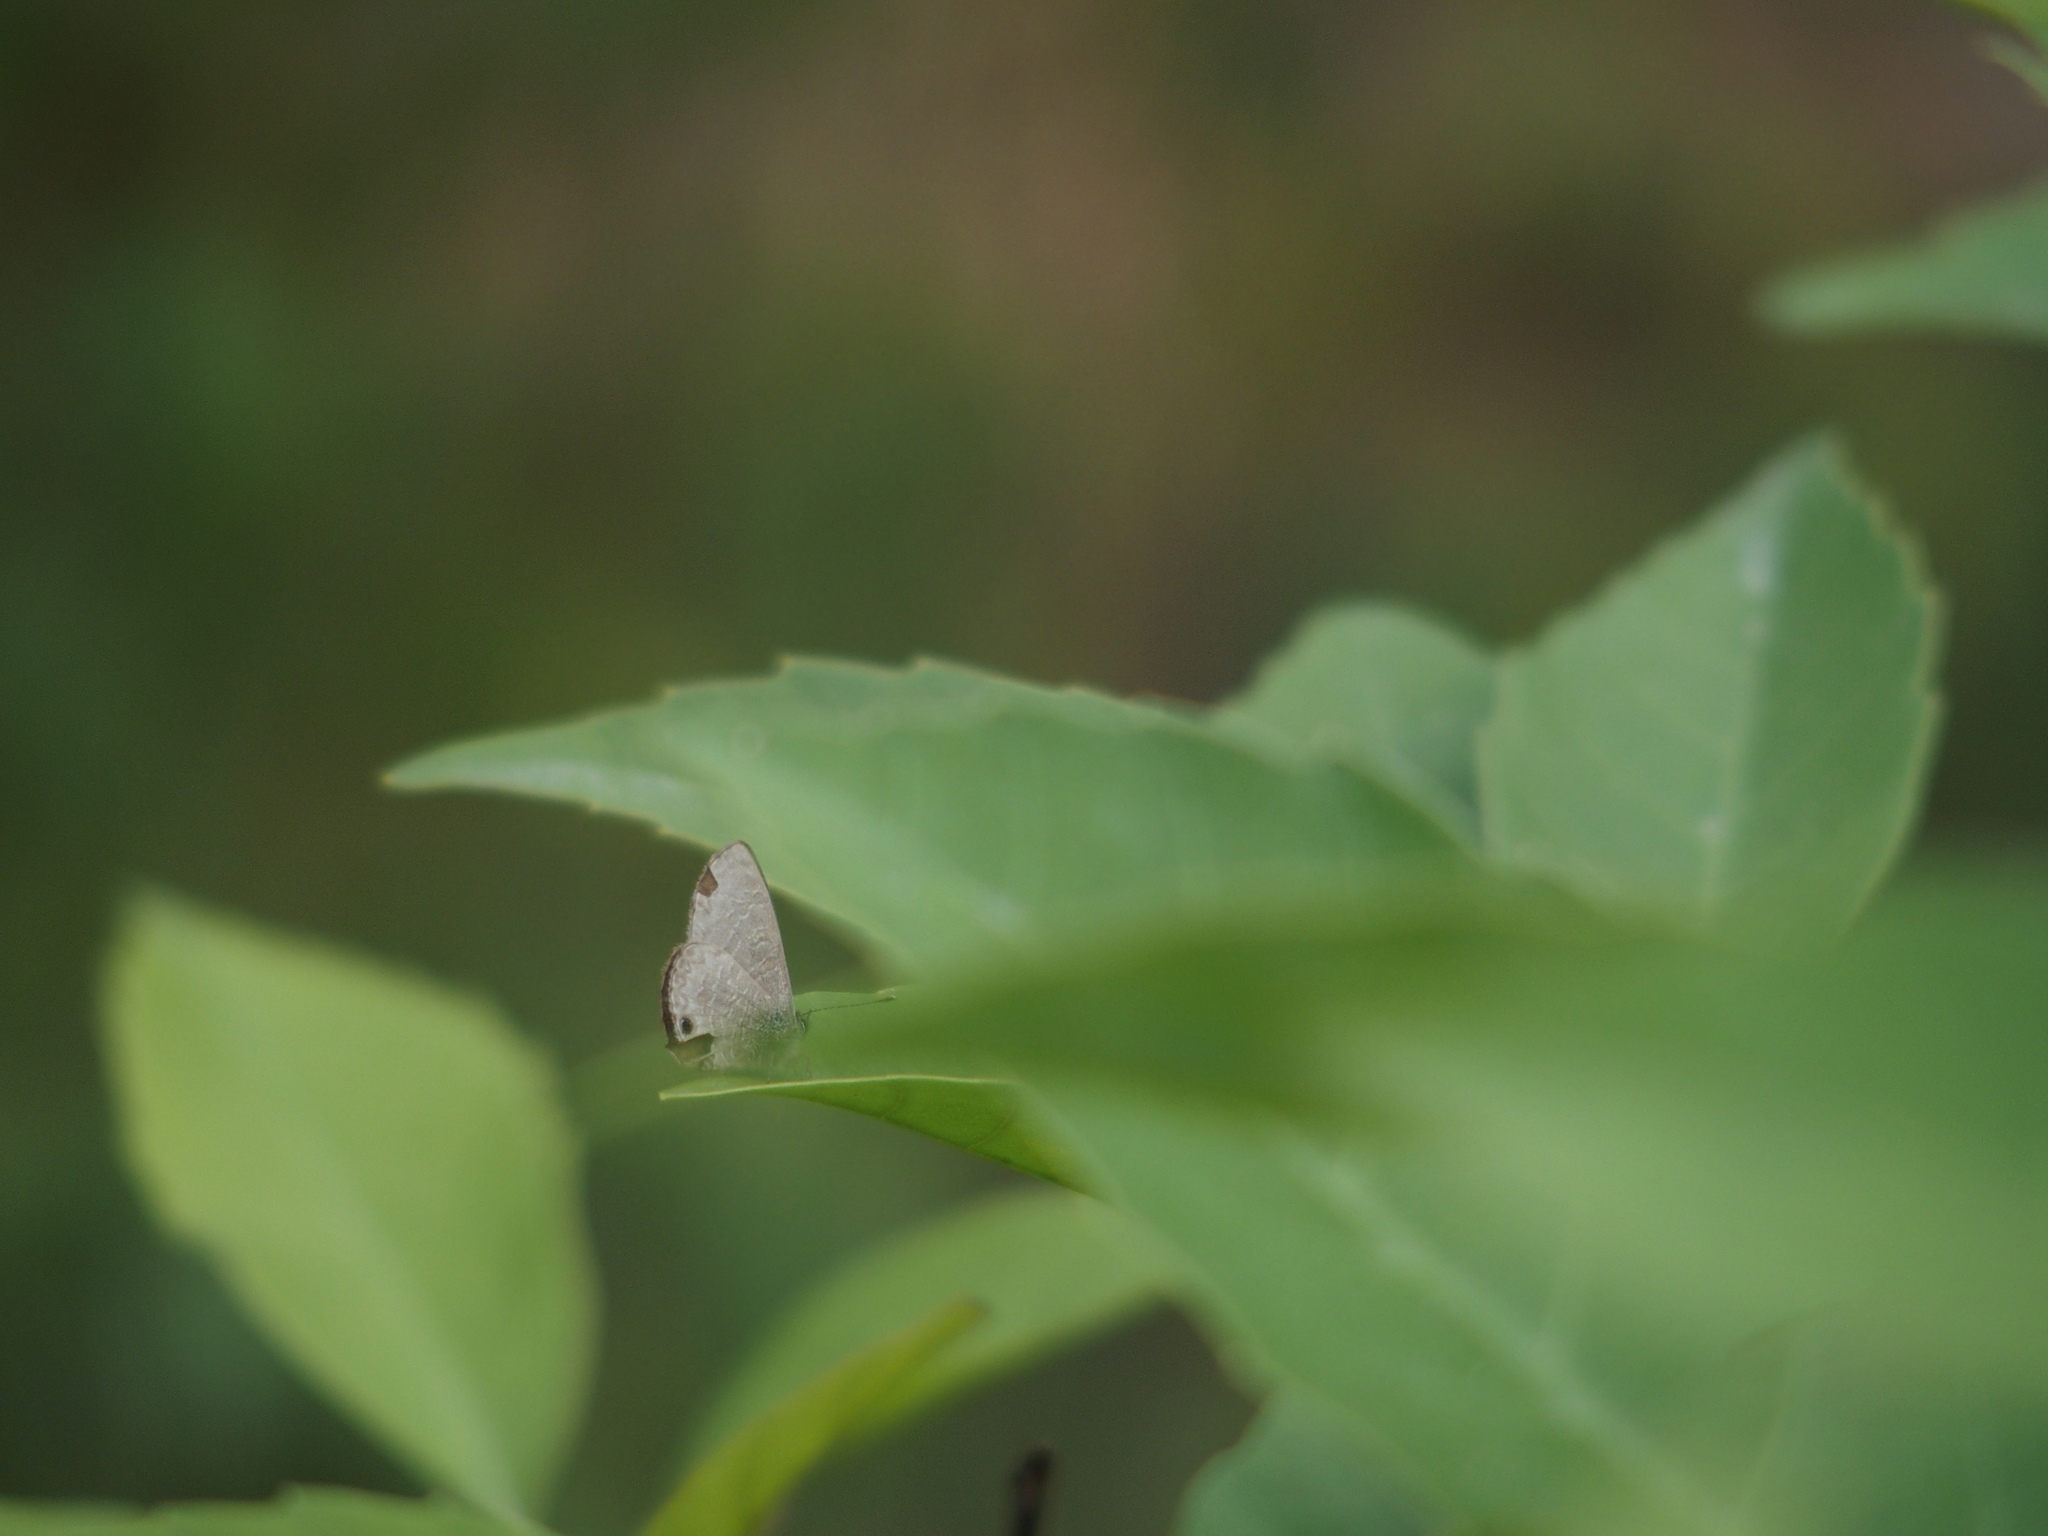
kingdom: Animalia
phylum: Arthropoda
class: Insecta
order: Lepidoptera
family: Lycaenidae
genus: Prosotas
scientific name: Prosotas dubiosa
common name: Tailless lineblue
